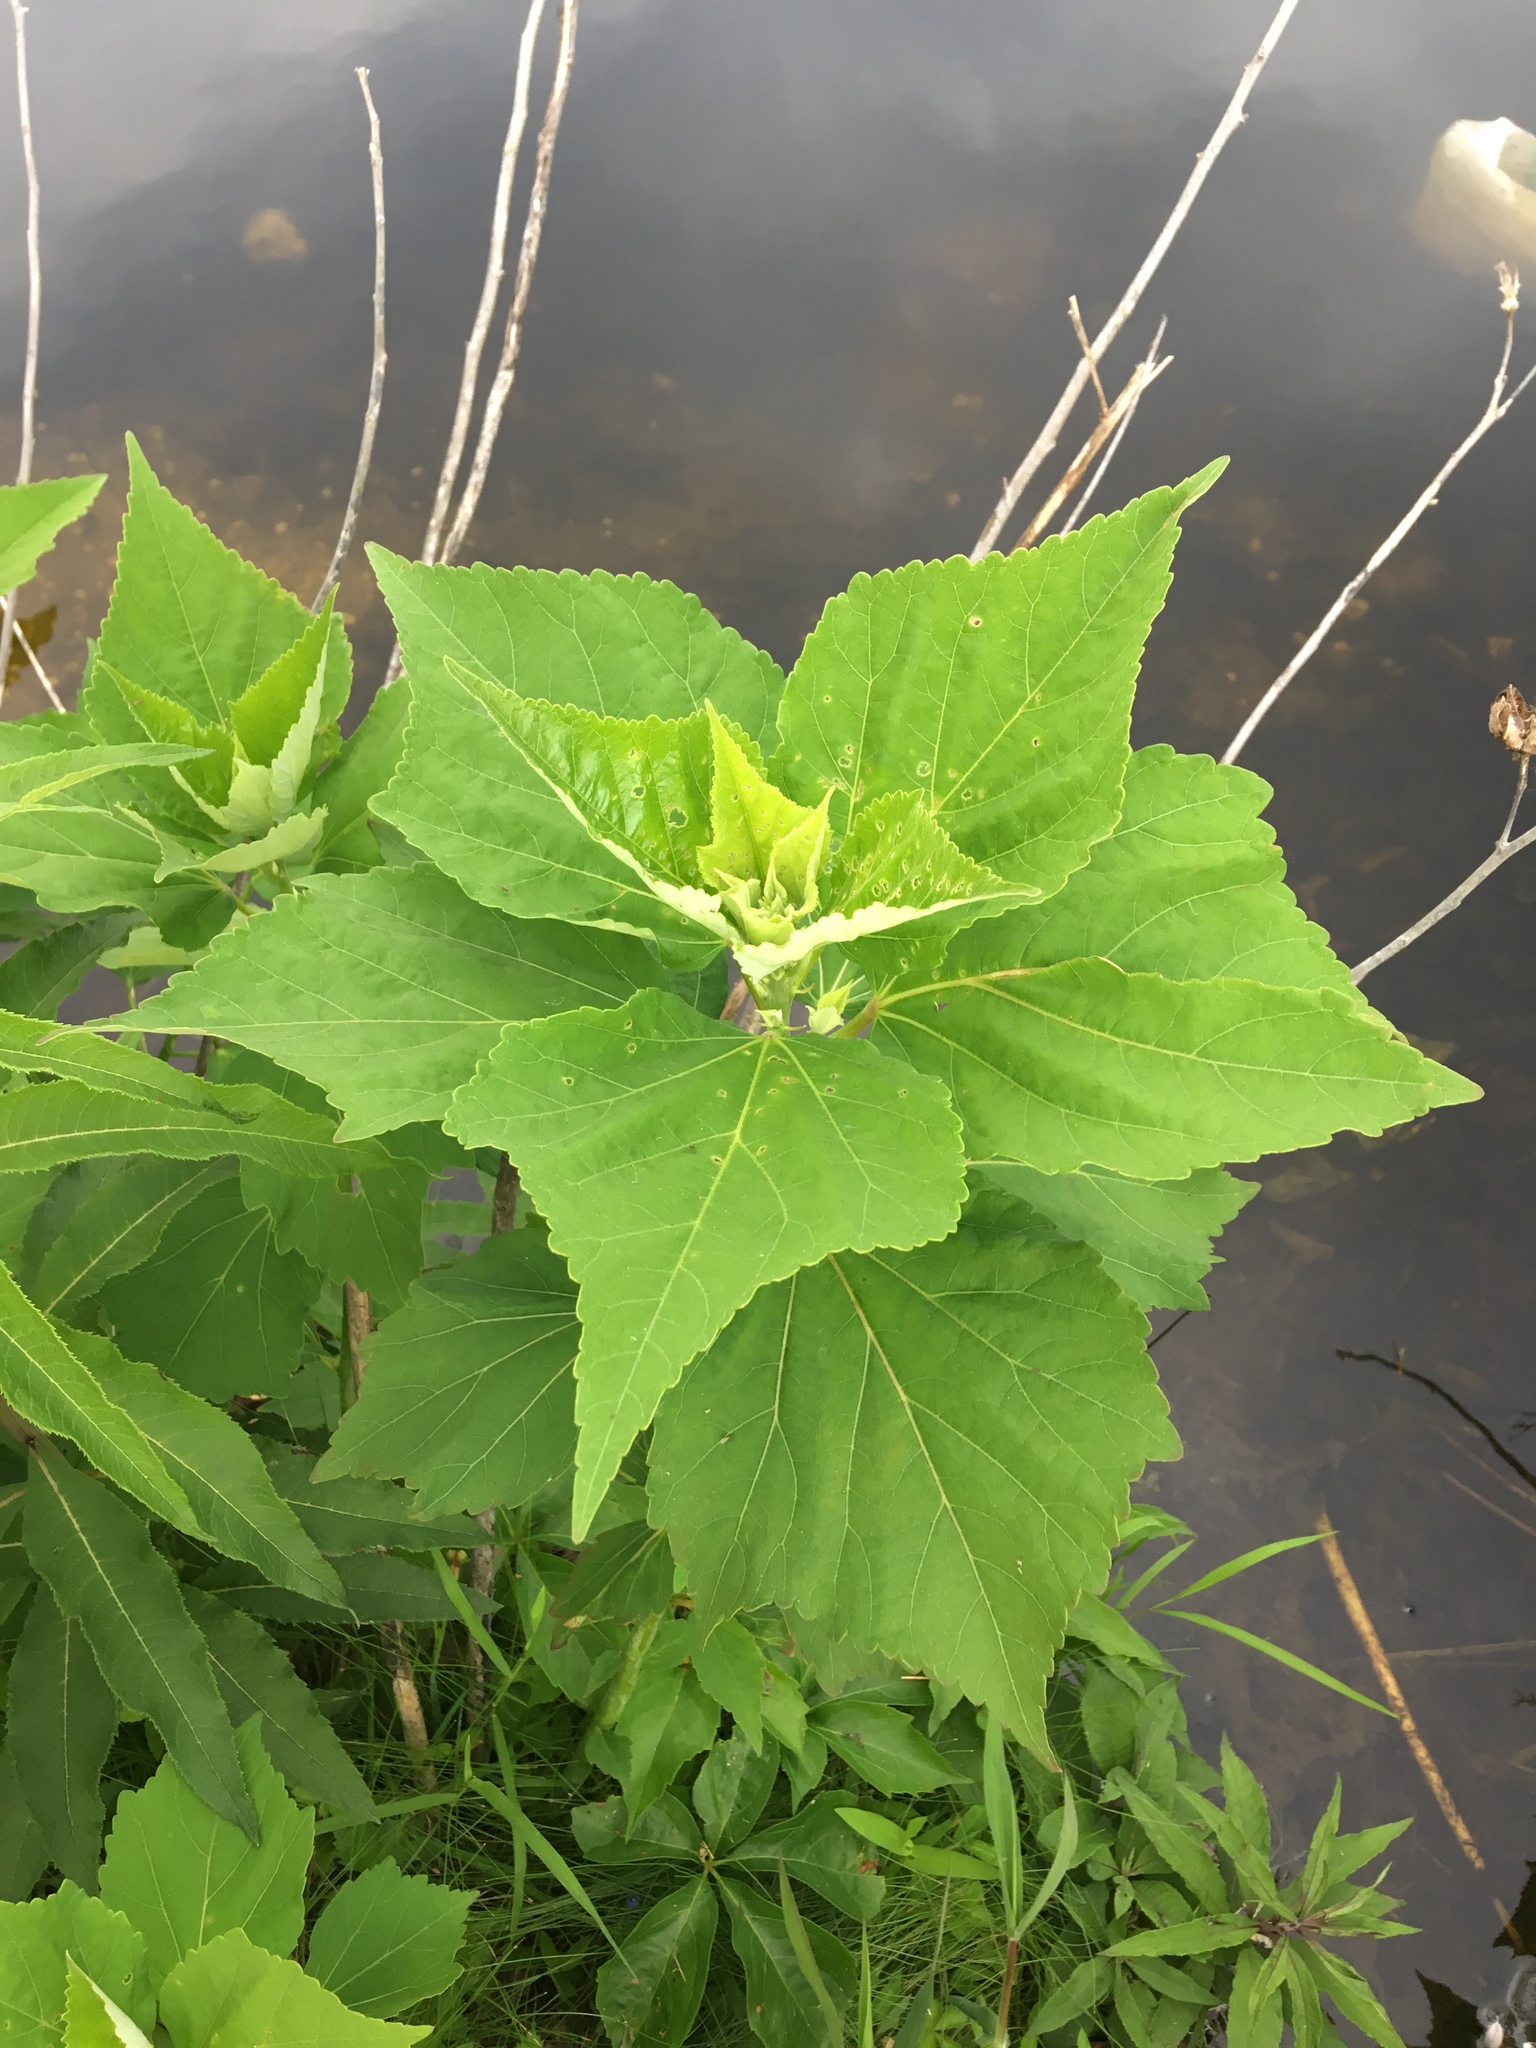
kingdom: Plantae
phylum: Tracheophyta
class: Magnoliopsida
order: Malvales
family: Malvaceae
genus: Hibiscus
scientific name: Hibiscus moscheutos
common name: Common rose-mallow
